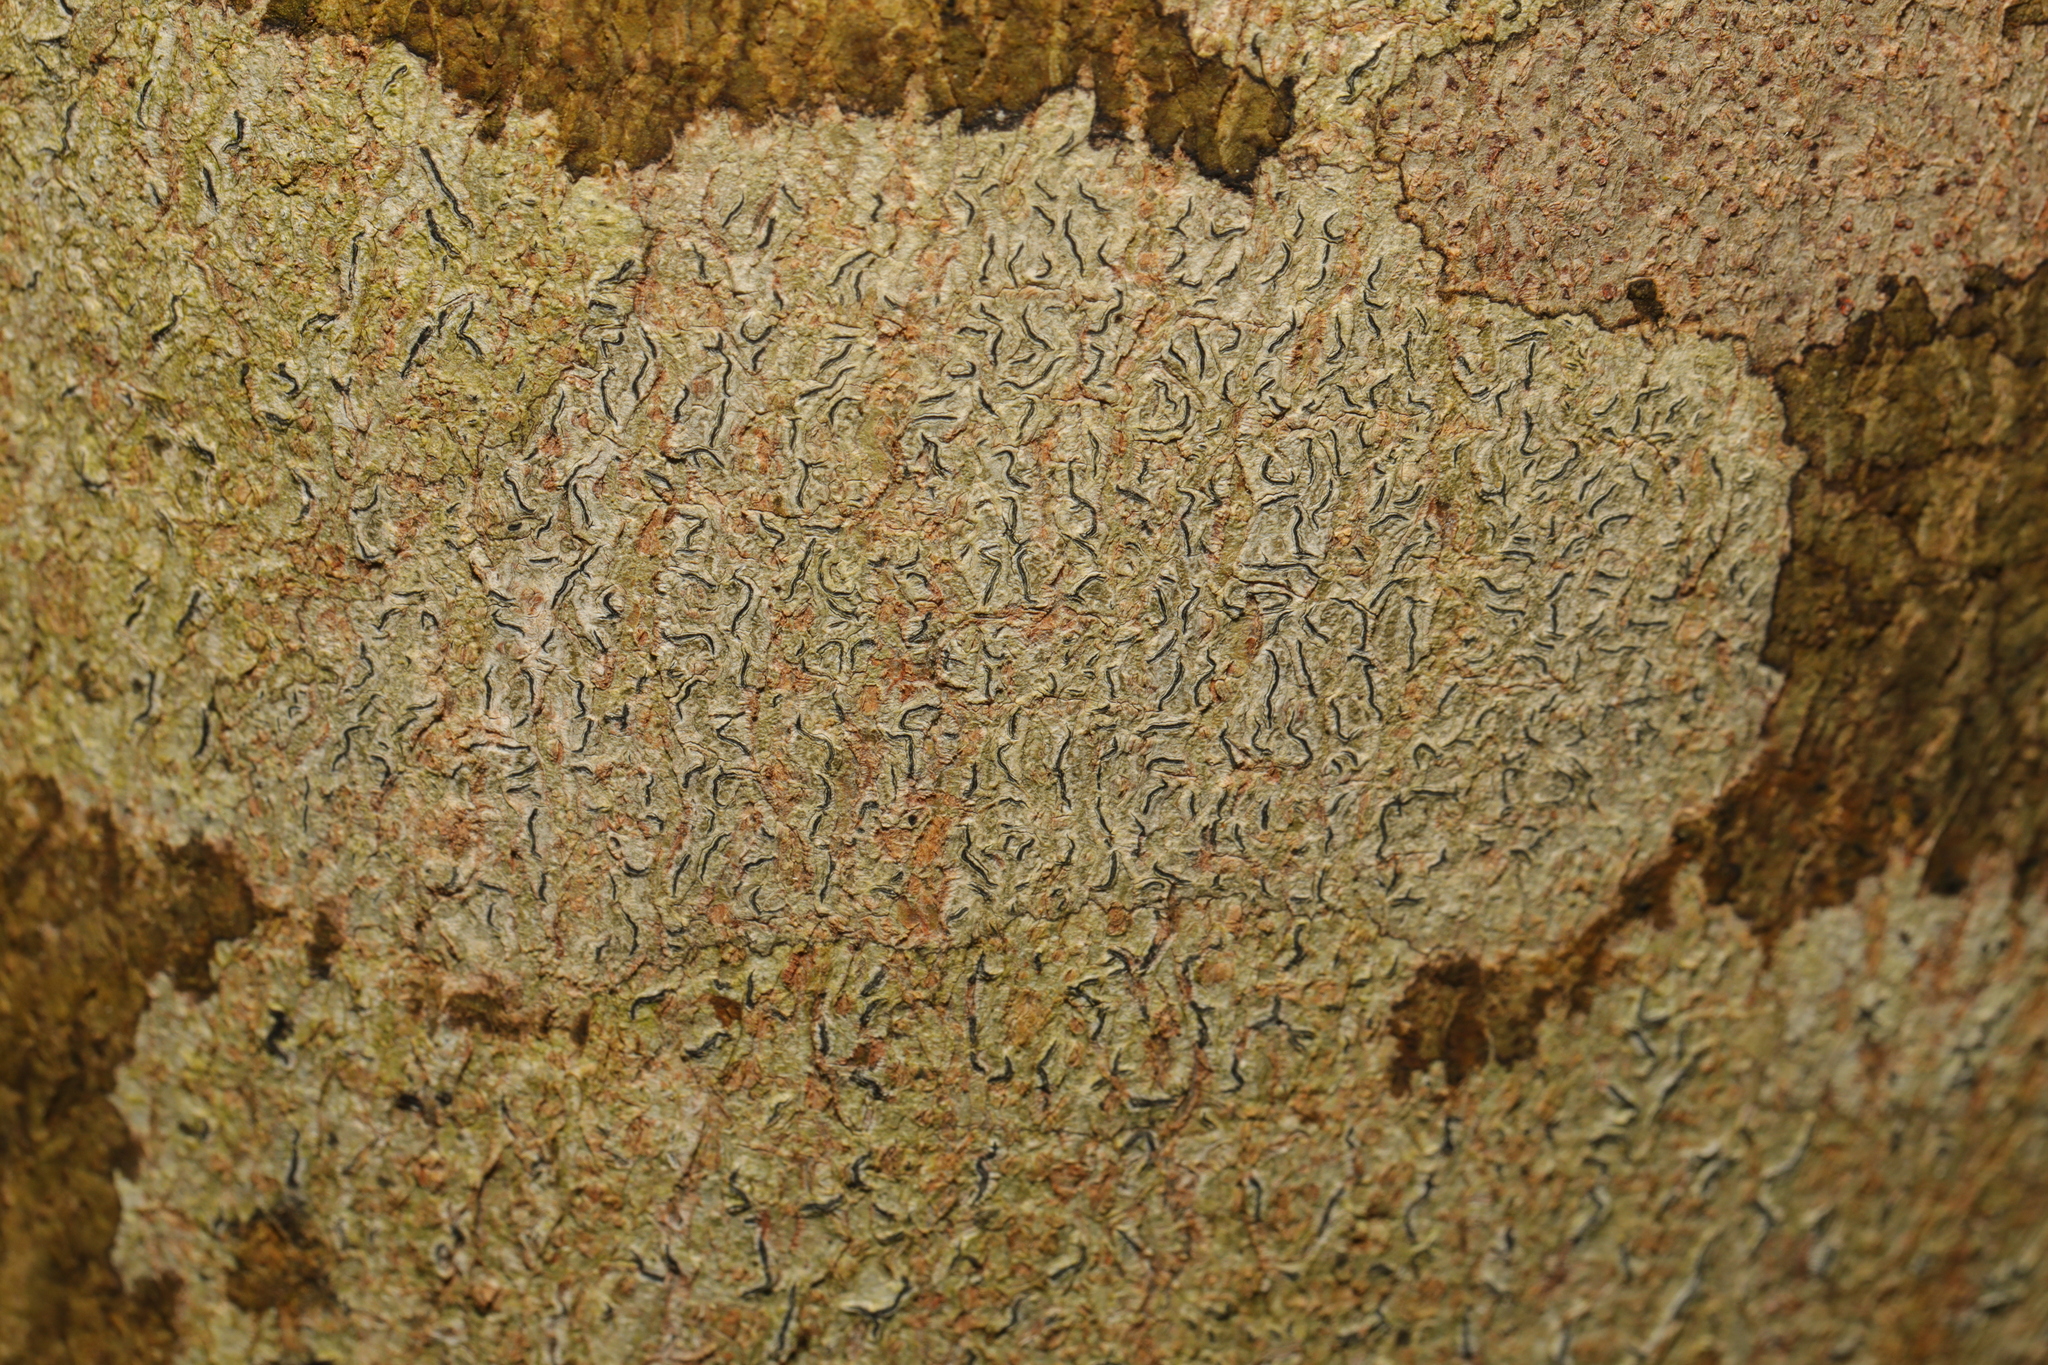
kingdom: Fungi
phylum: Ascomycota
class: Lecanoromycetes
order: Ostropales
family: Graphidaceae
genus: Graphis
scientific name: Graphis scripta
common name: Script lichen
